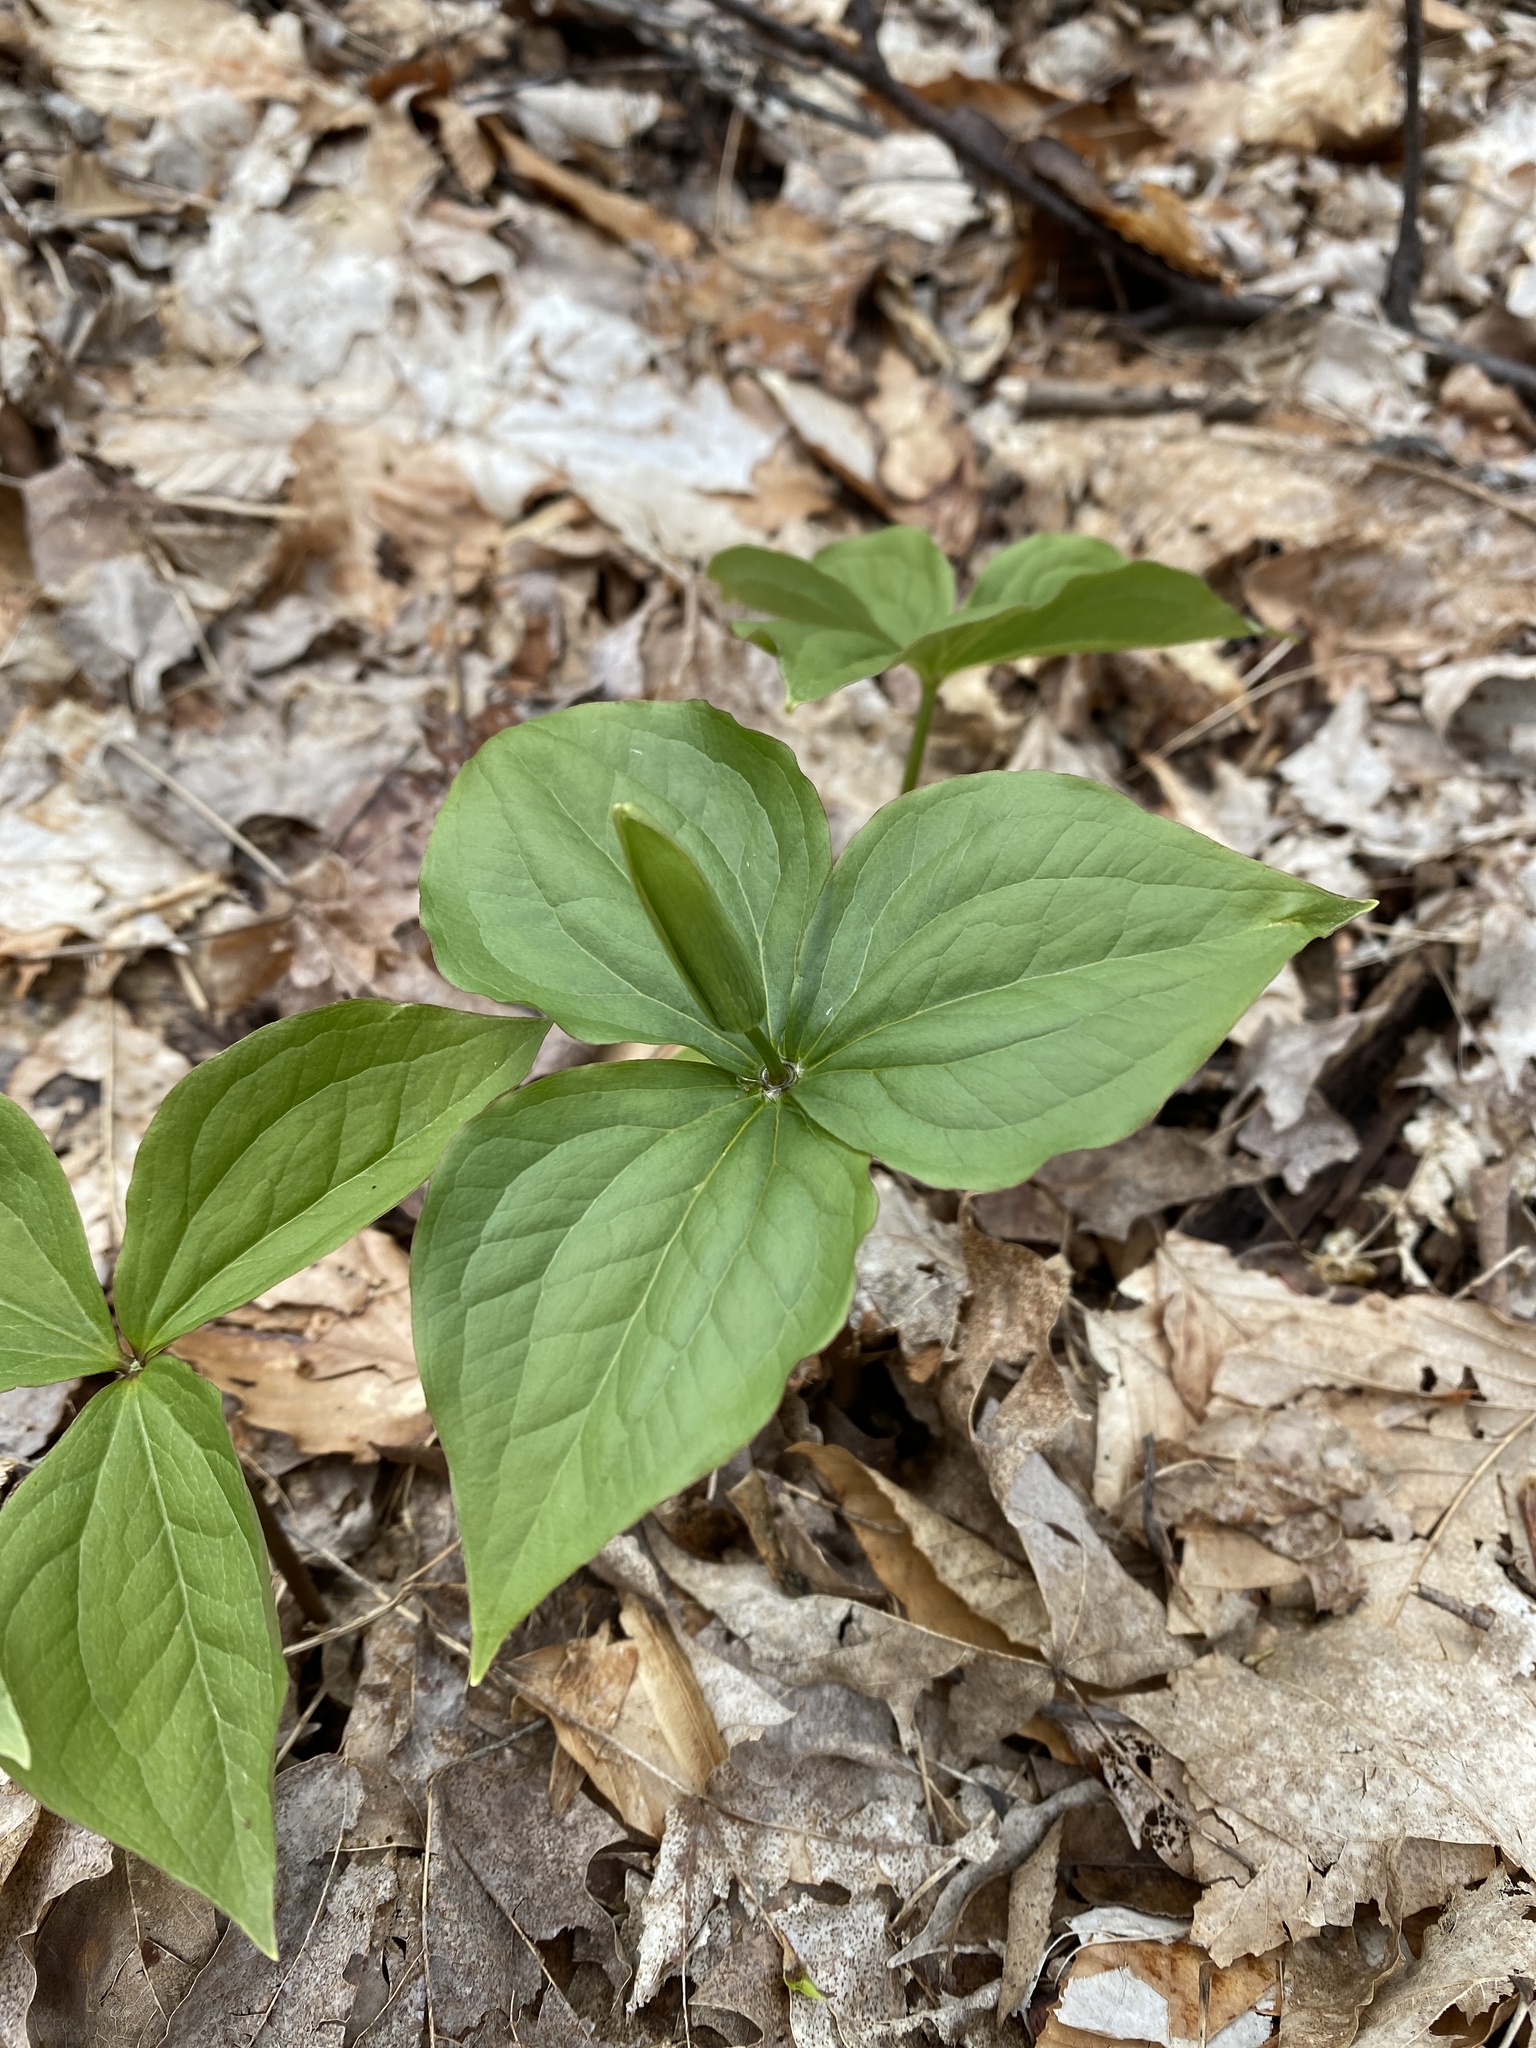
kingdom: Plantae
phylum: Tracheophyta
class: Liliopsida
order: Liliales
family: Melanthiaceae
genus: Trillium
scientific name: Trillium grandiflorum
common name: Great white trillium
